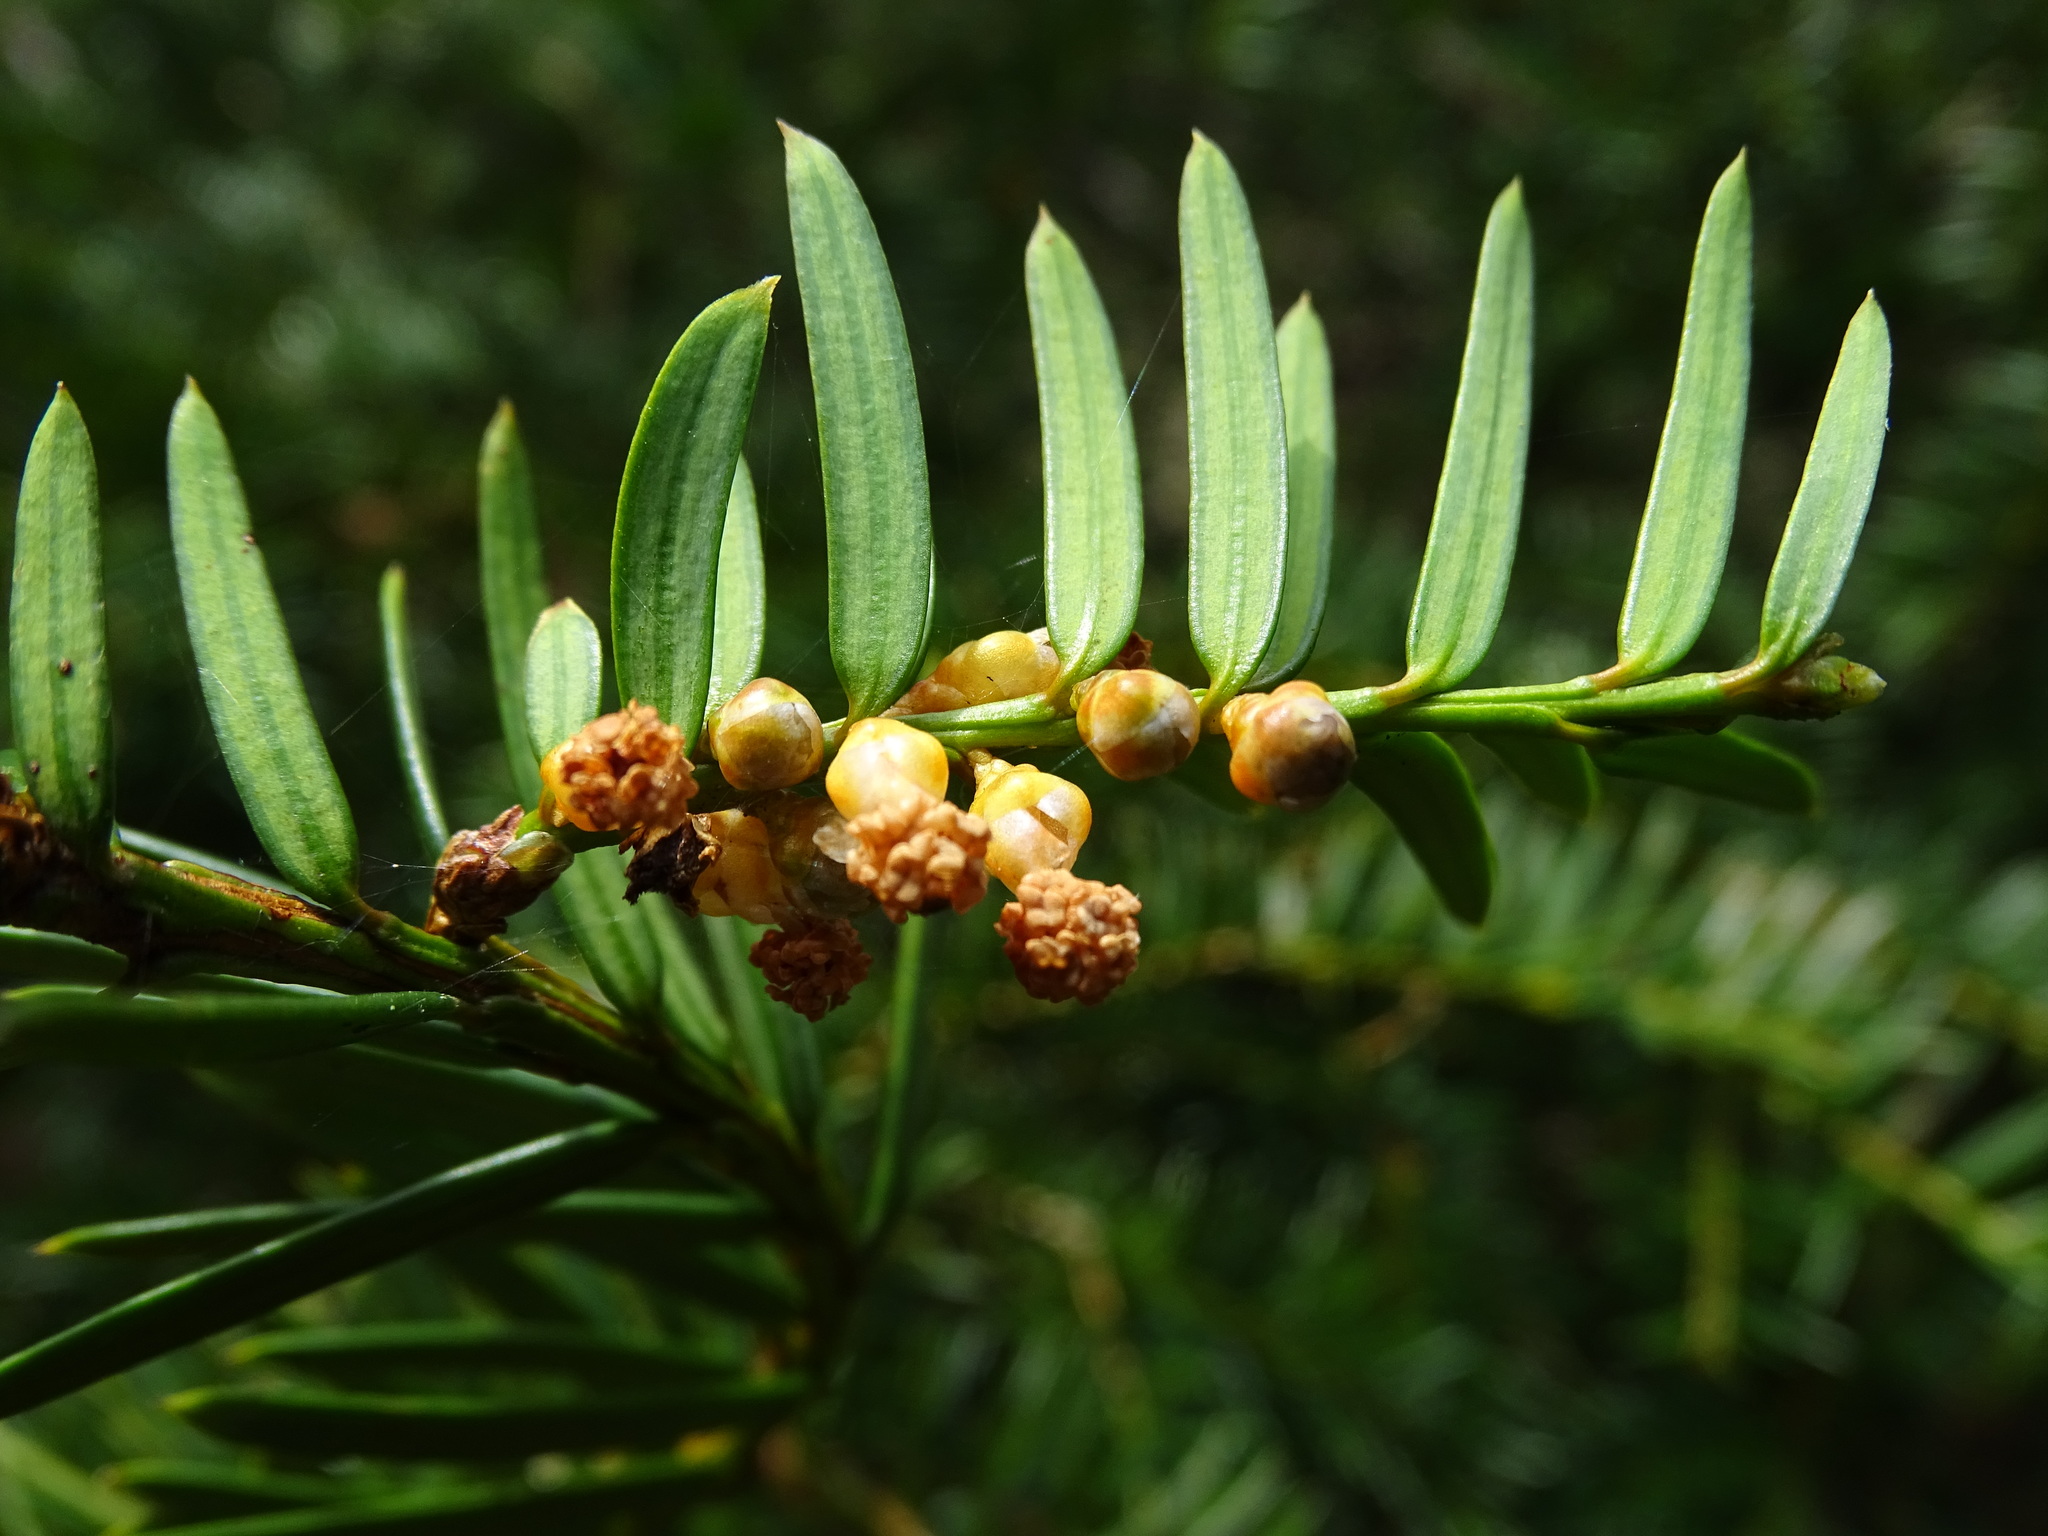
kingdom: Plantae
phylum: Tracheophyta
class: Pinopsida
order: Pinales
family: Taxaceae
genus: Taxus
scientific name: Taxus baccata
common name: Yew
